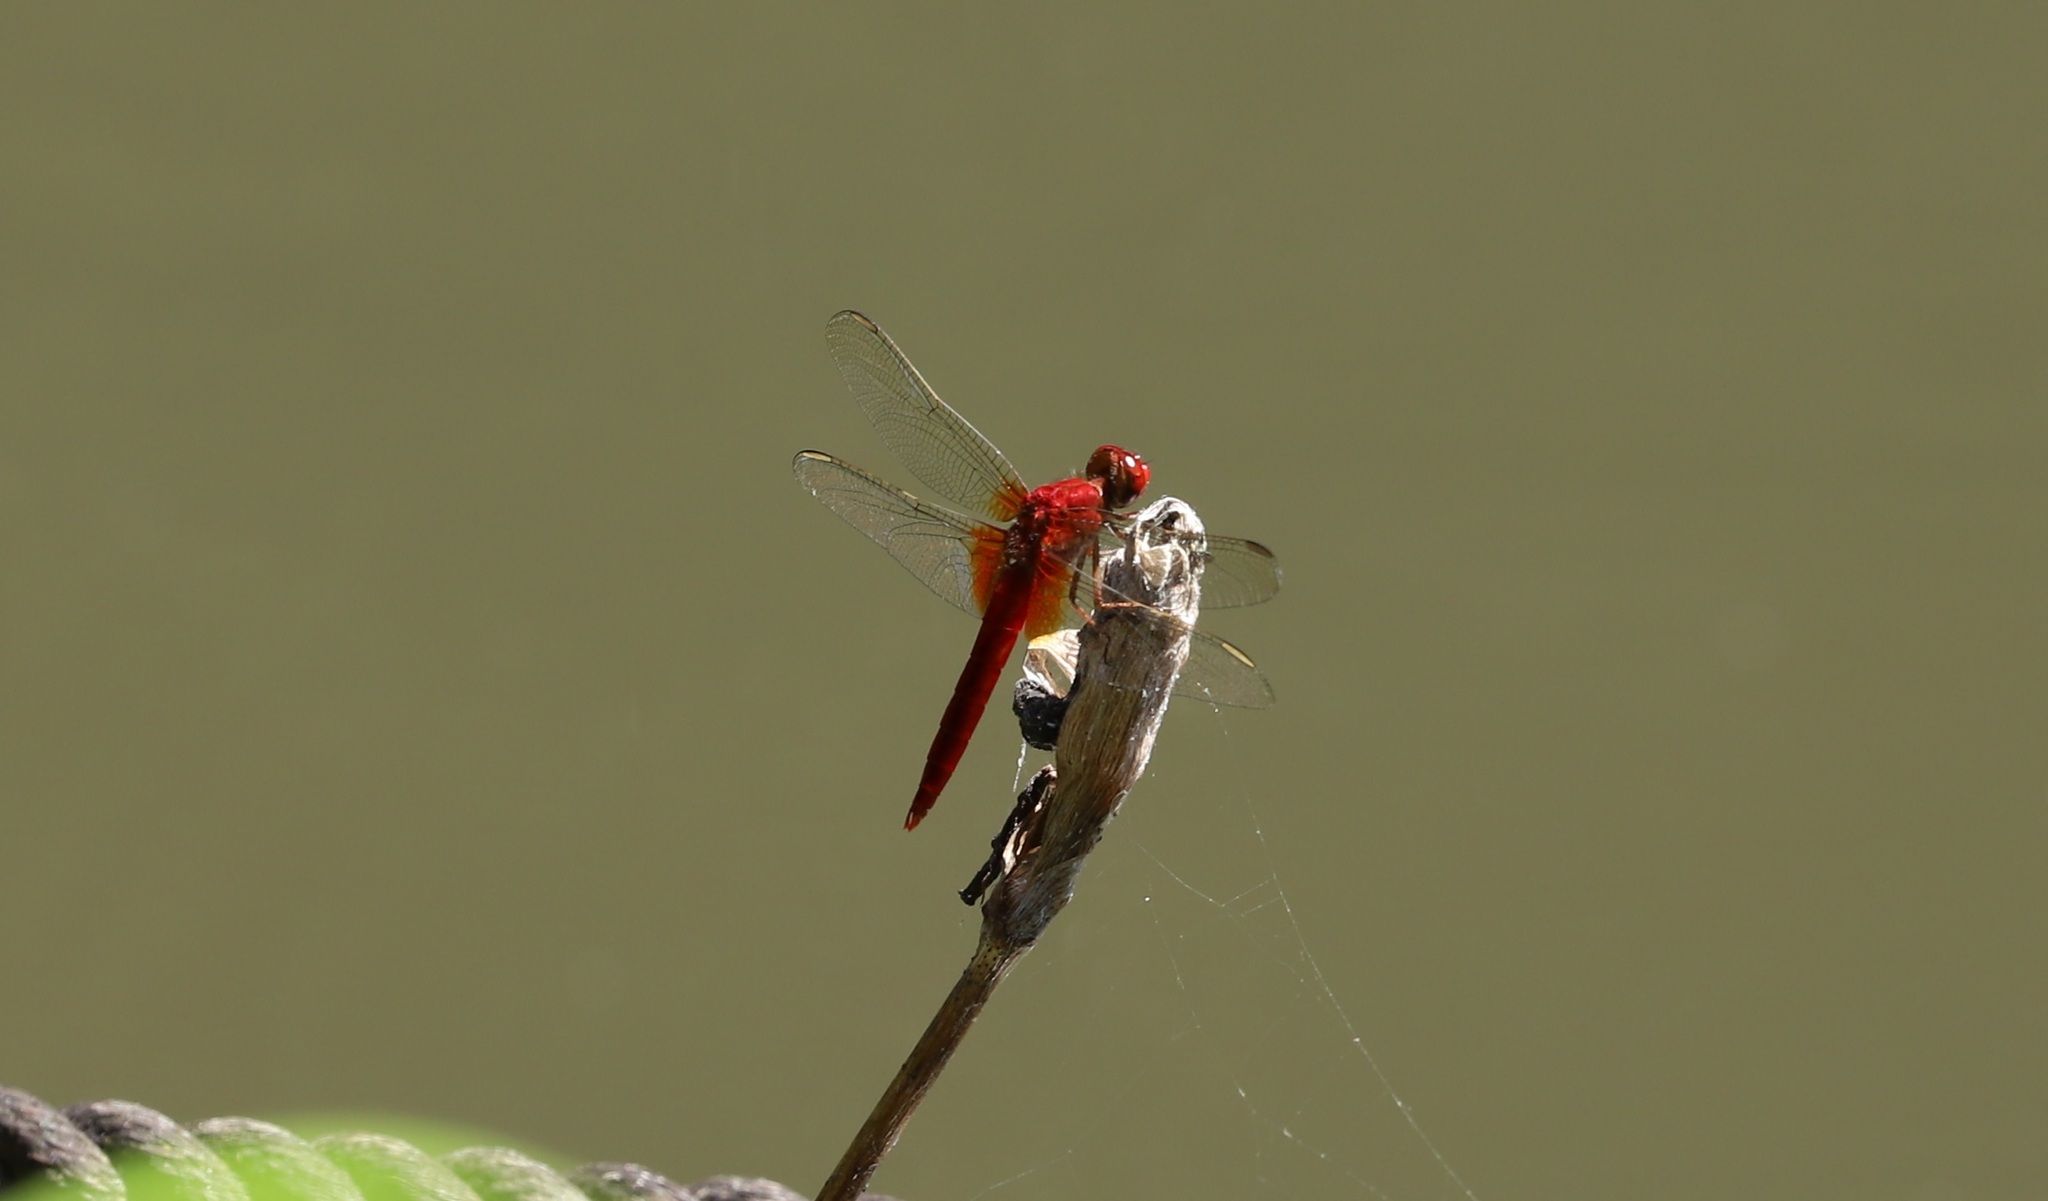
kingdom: Animalia
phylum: Arthropoda
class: Insecta
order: Odonata
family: Libellulidae
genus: Crocothemis
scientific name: Crocothemis servilia
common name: Scarlet skimmer
